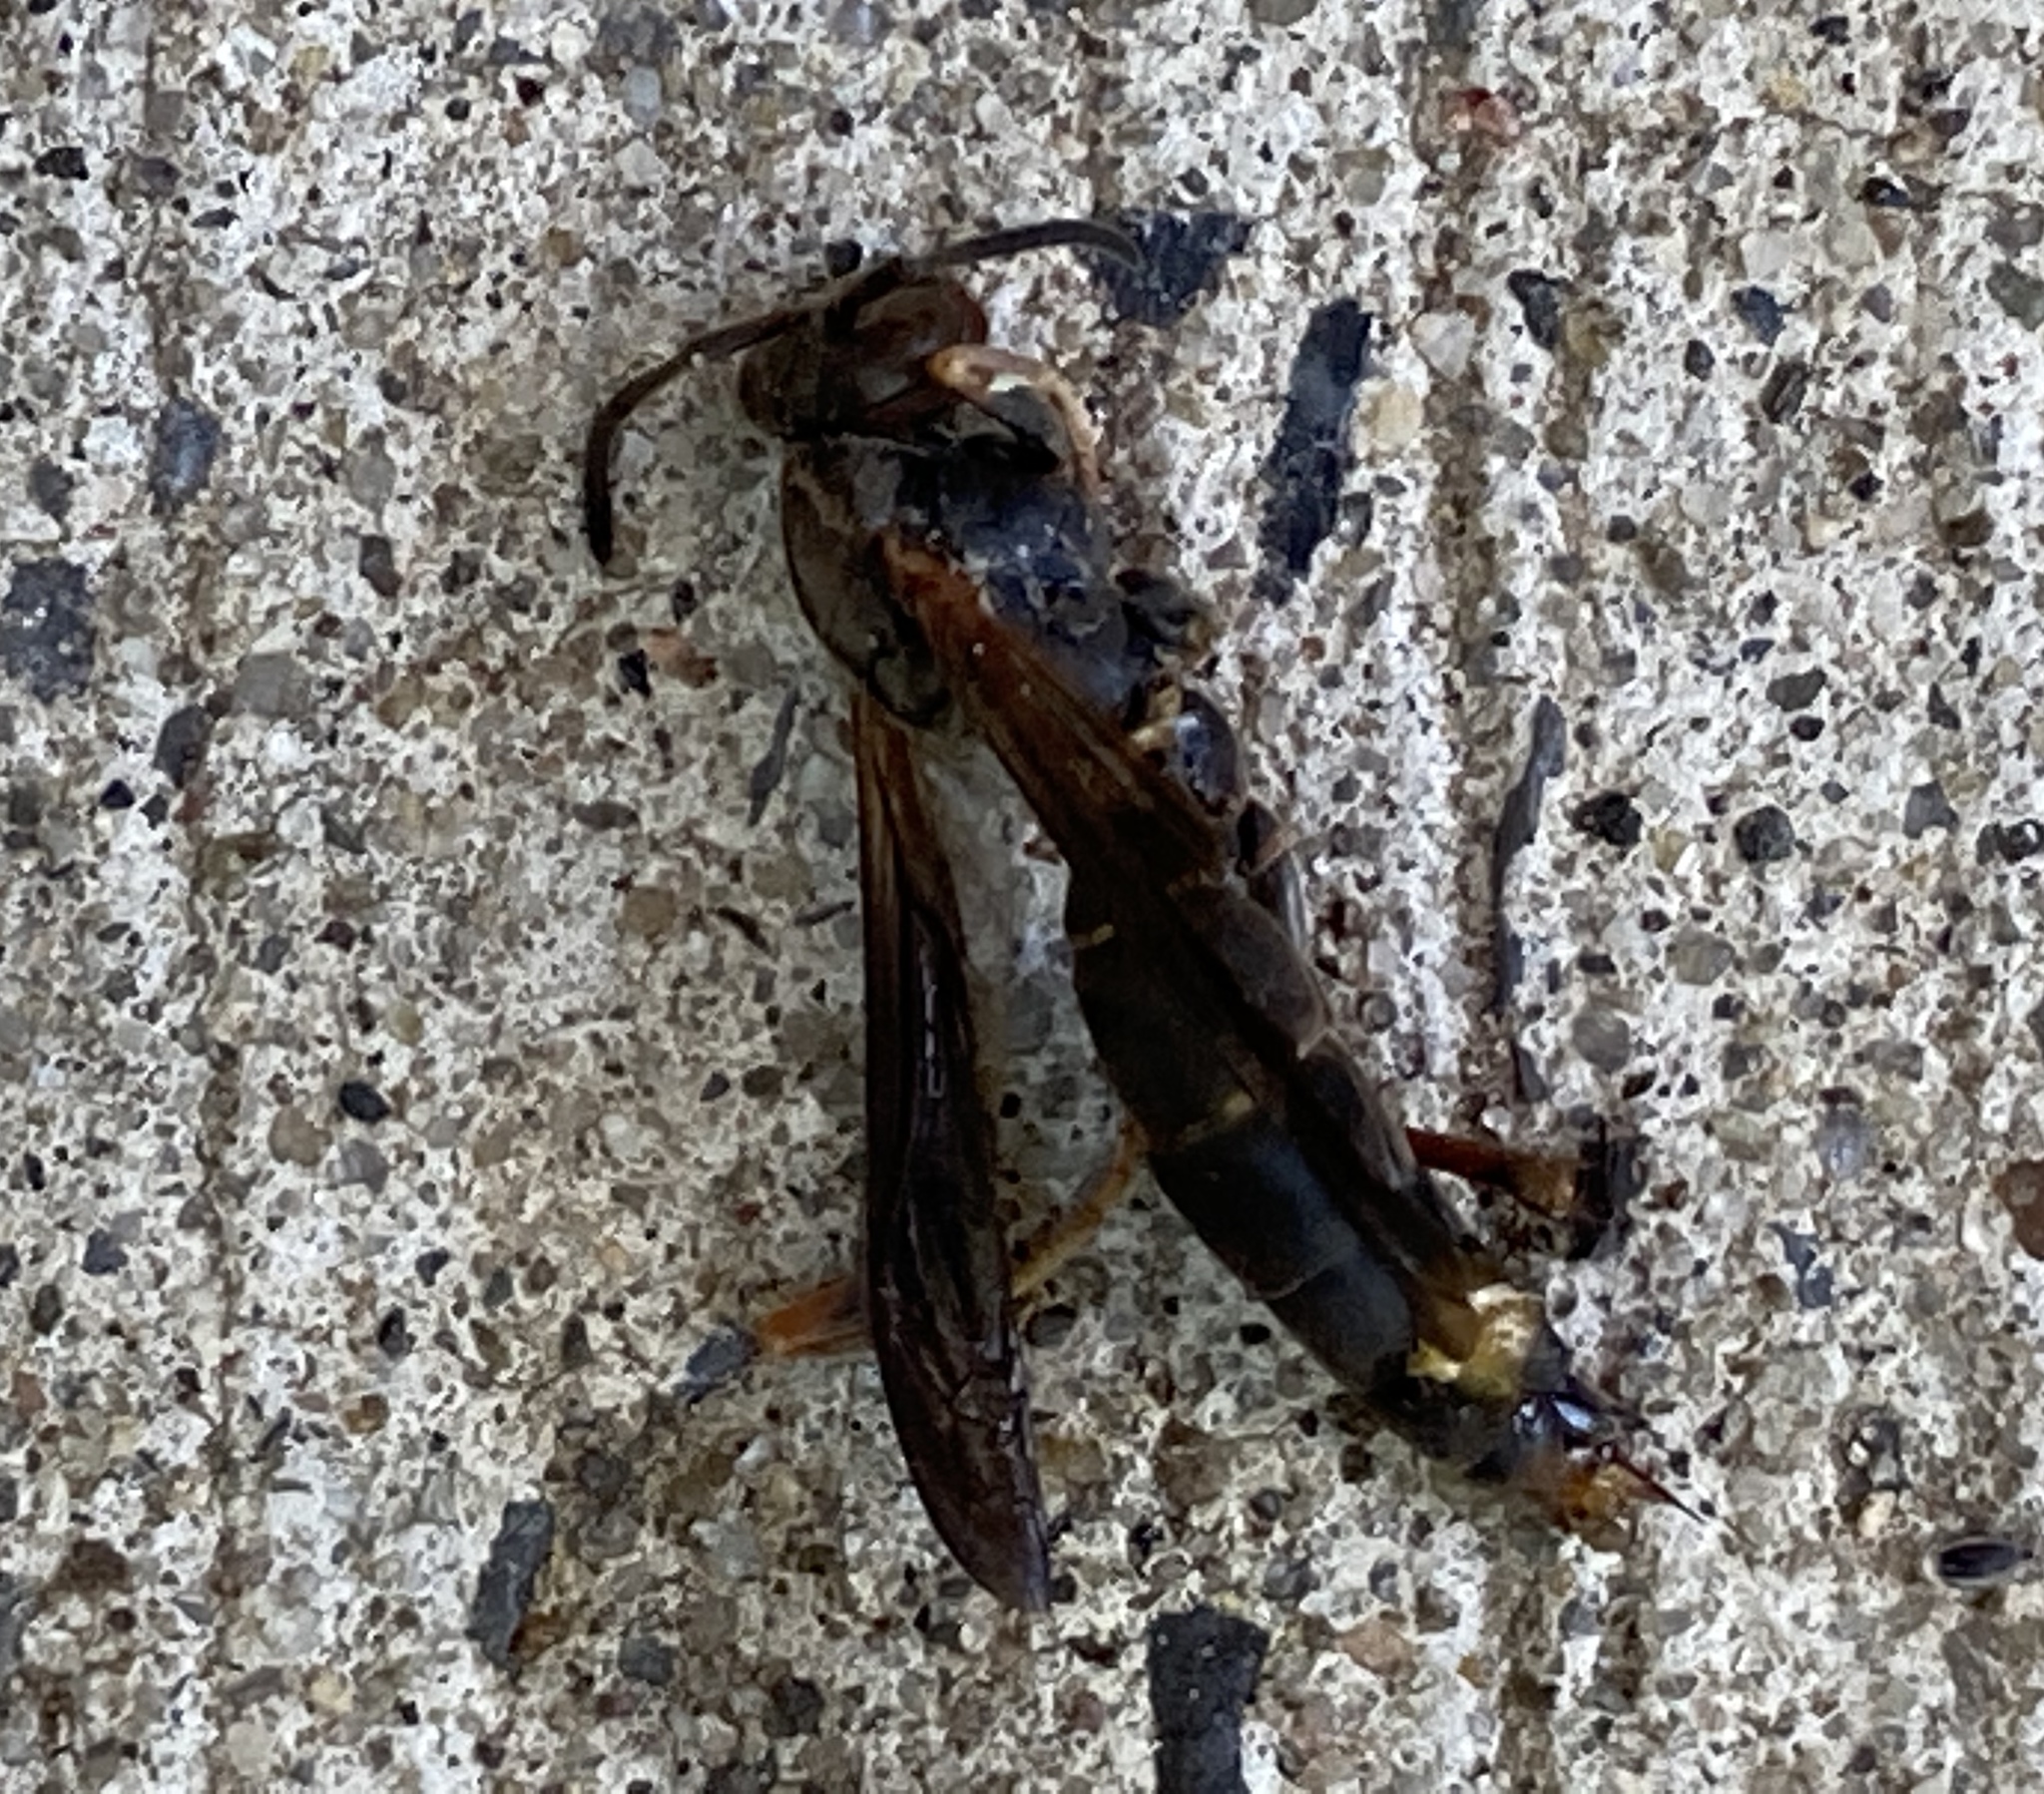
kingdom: Animalia
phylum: Arthropoda
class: Insecta
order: Hymenoptera
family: Eumenidae
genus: Polistes
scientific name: Polistes fuscatus
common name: Dark paper wasp
